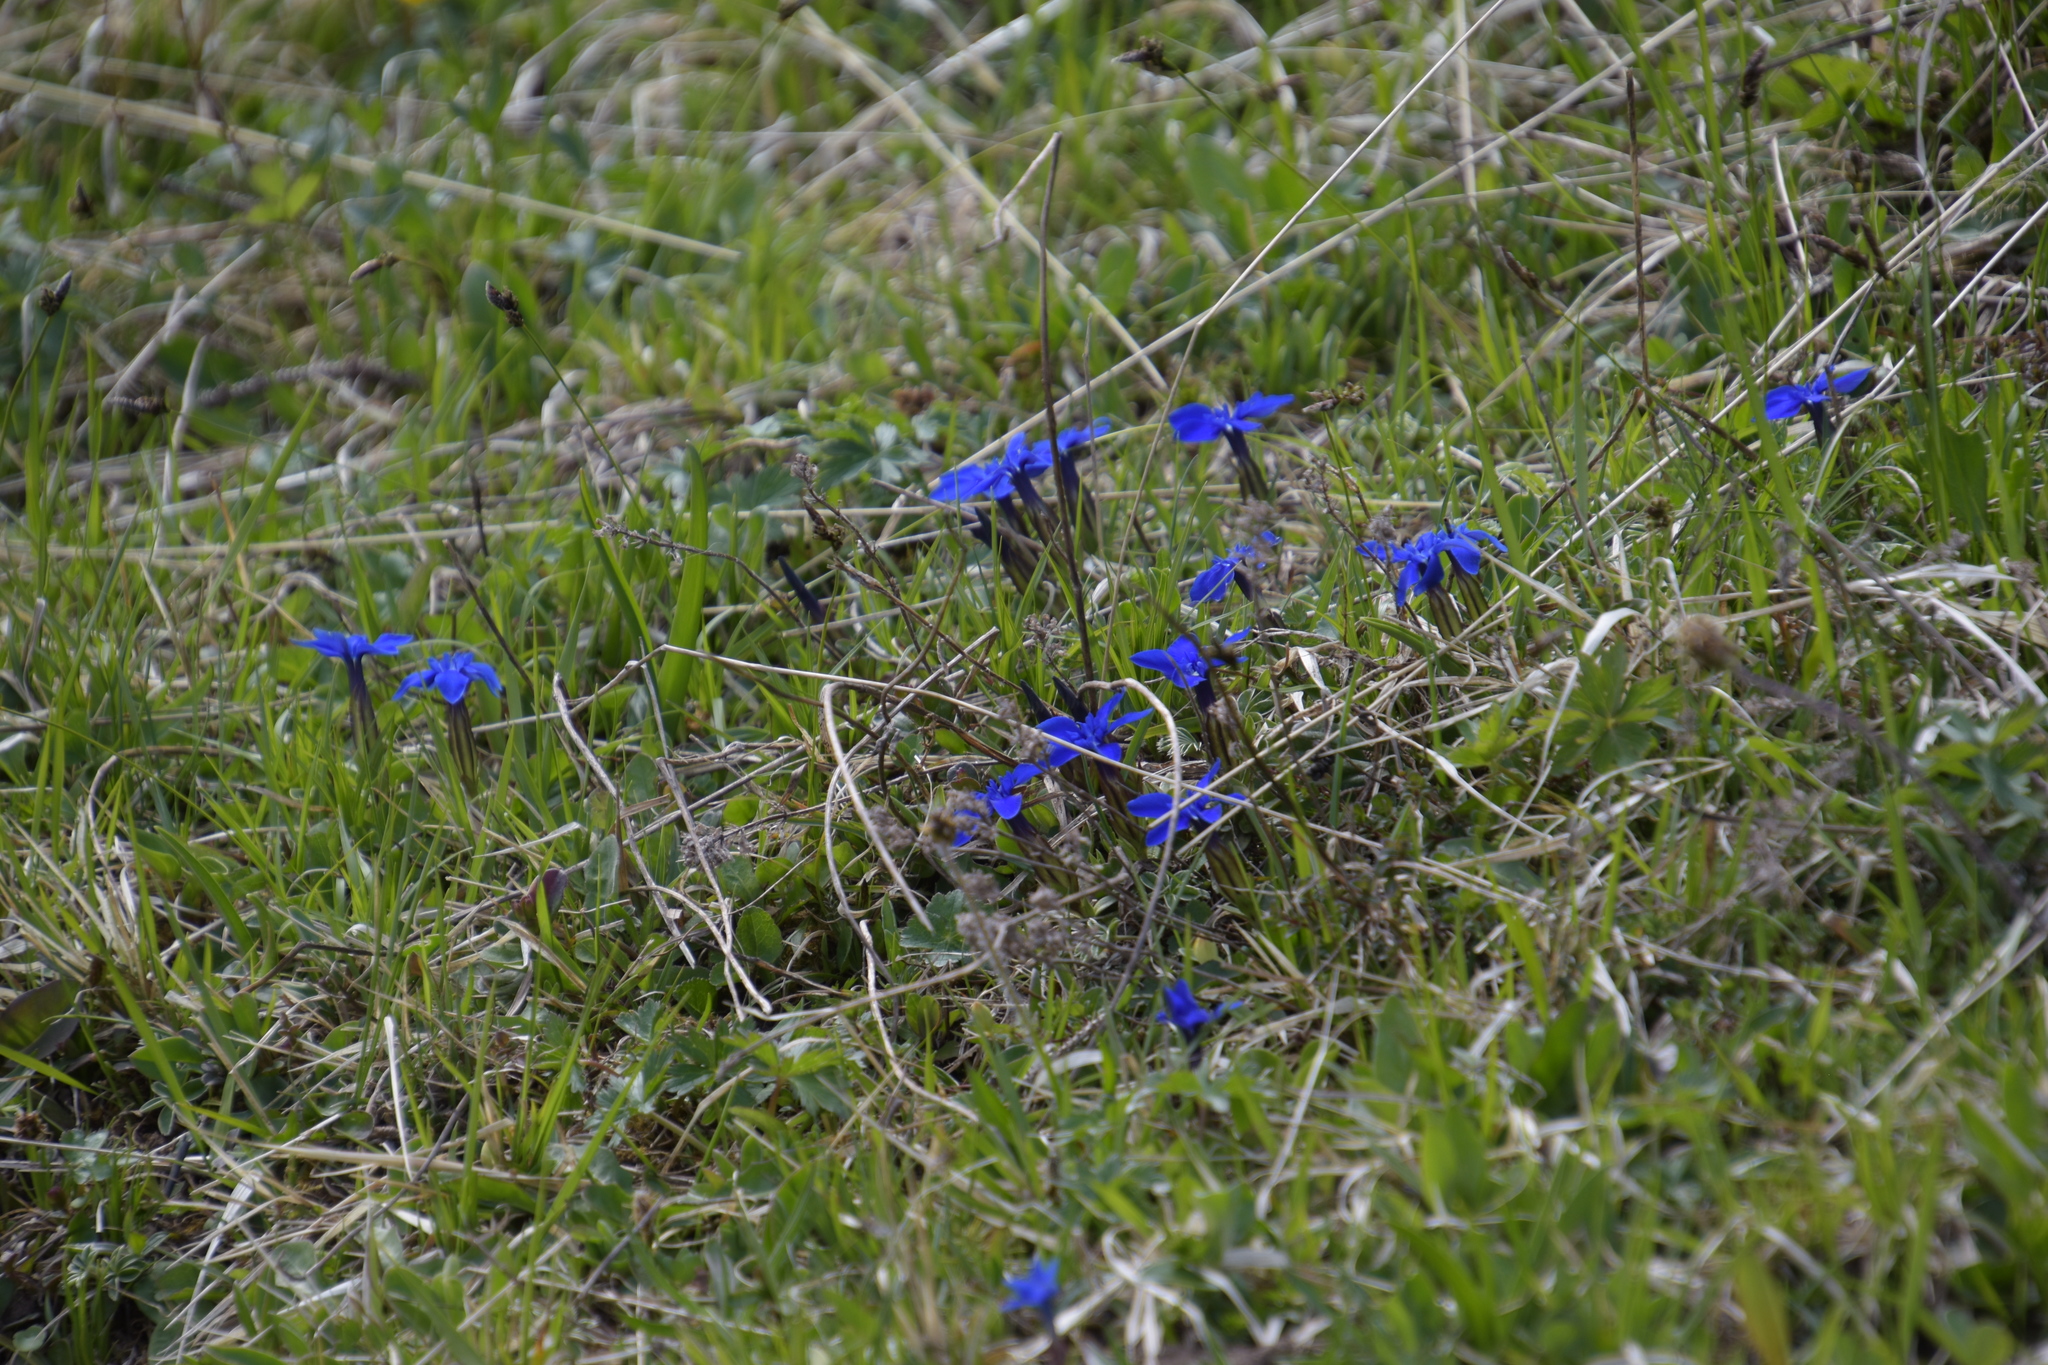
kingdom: Plantae
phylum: Tracheophyta
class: Magnoliopsida
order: Gentianales
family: Gentianaceae
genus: Gentiana
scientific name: Gentiana verna
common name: Spring gentian
